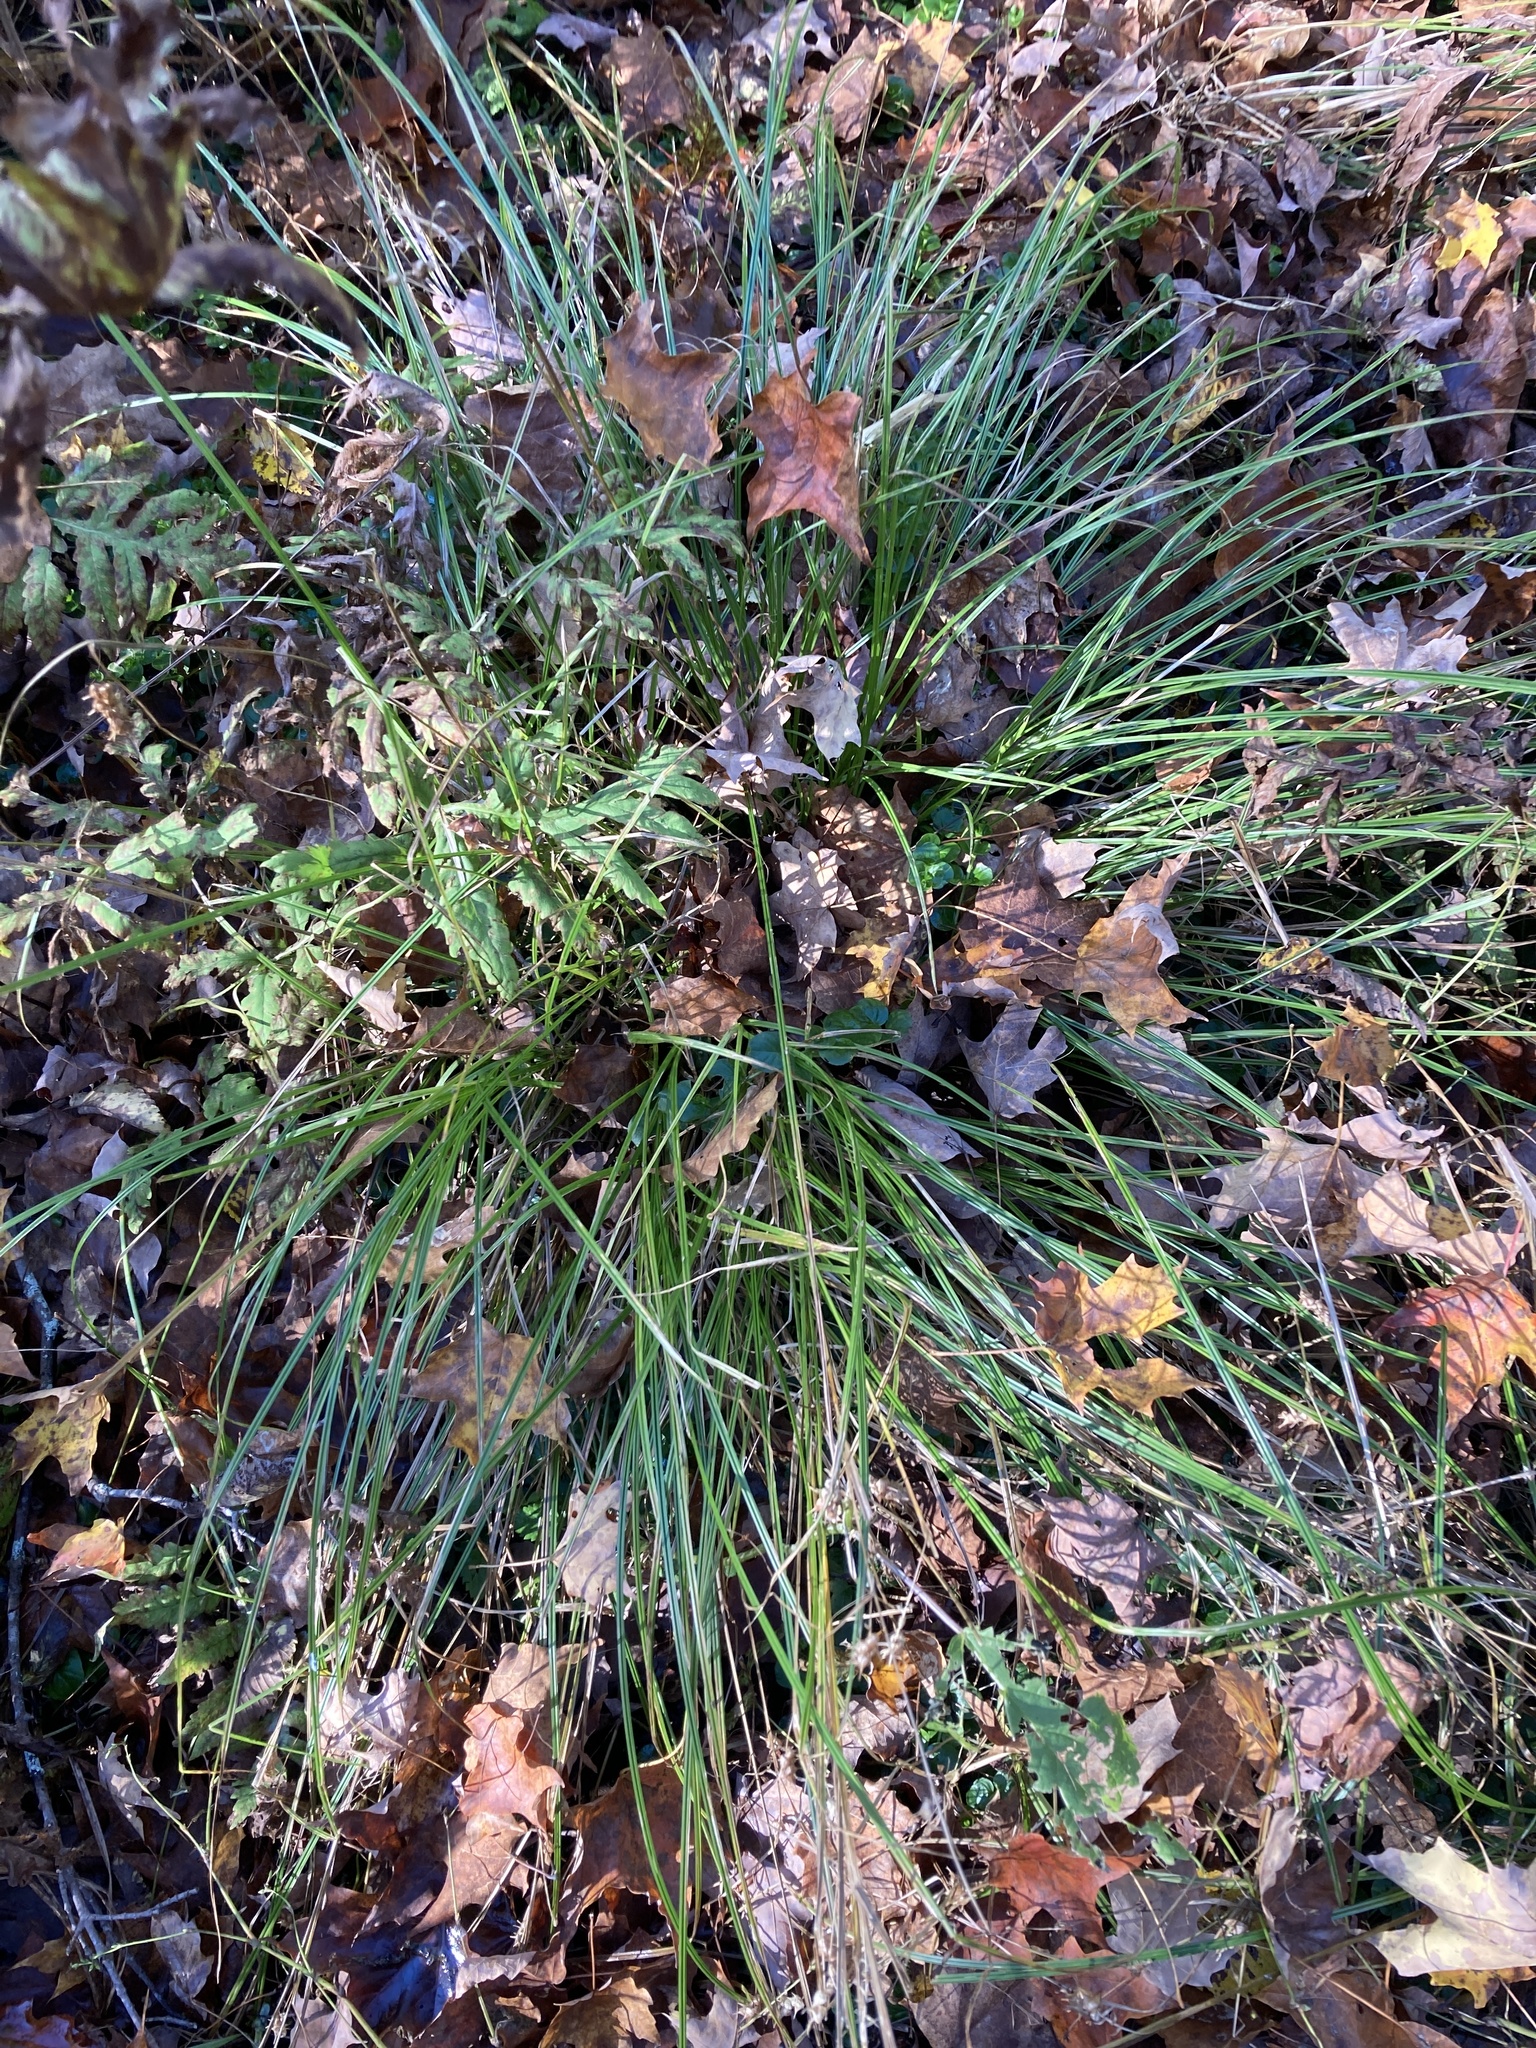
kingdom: Plantae
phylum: Tracheophyta
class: Liliopsida
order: Poales
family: Cyperaceae
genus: Carex
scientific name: Carex tuckermanii
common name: Tuckerman's sedge
